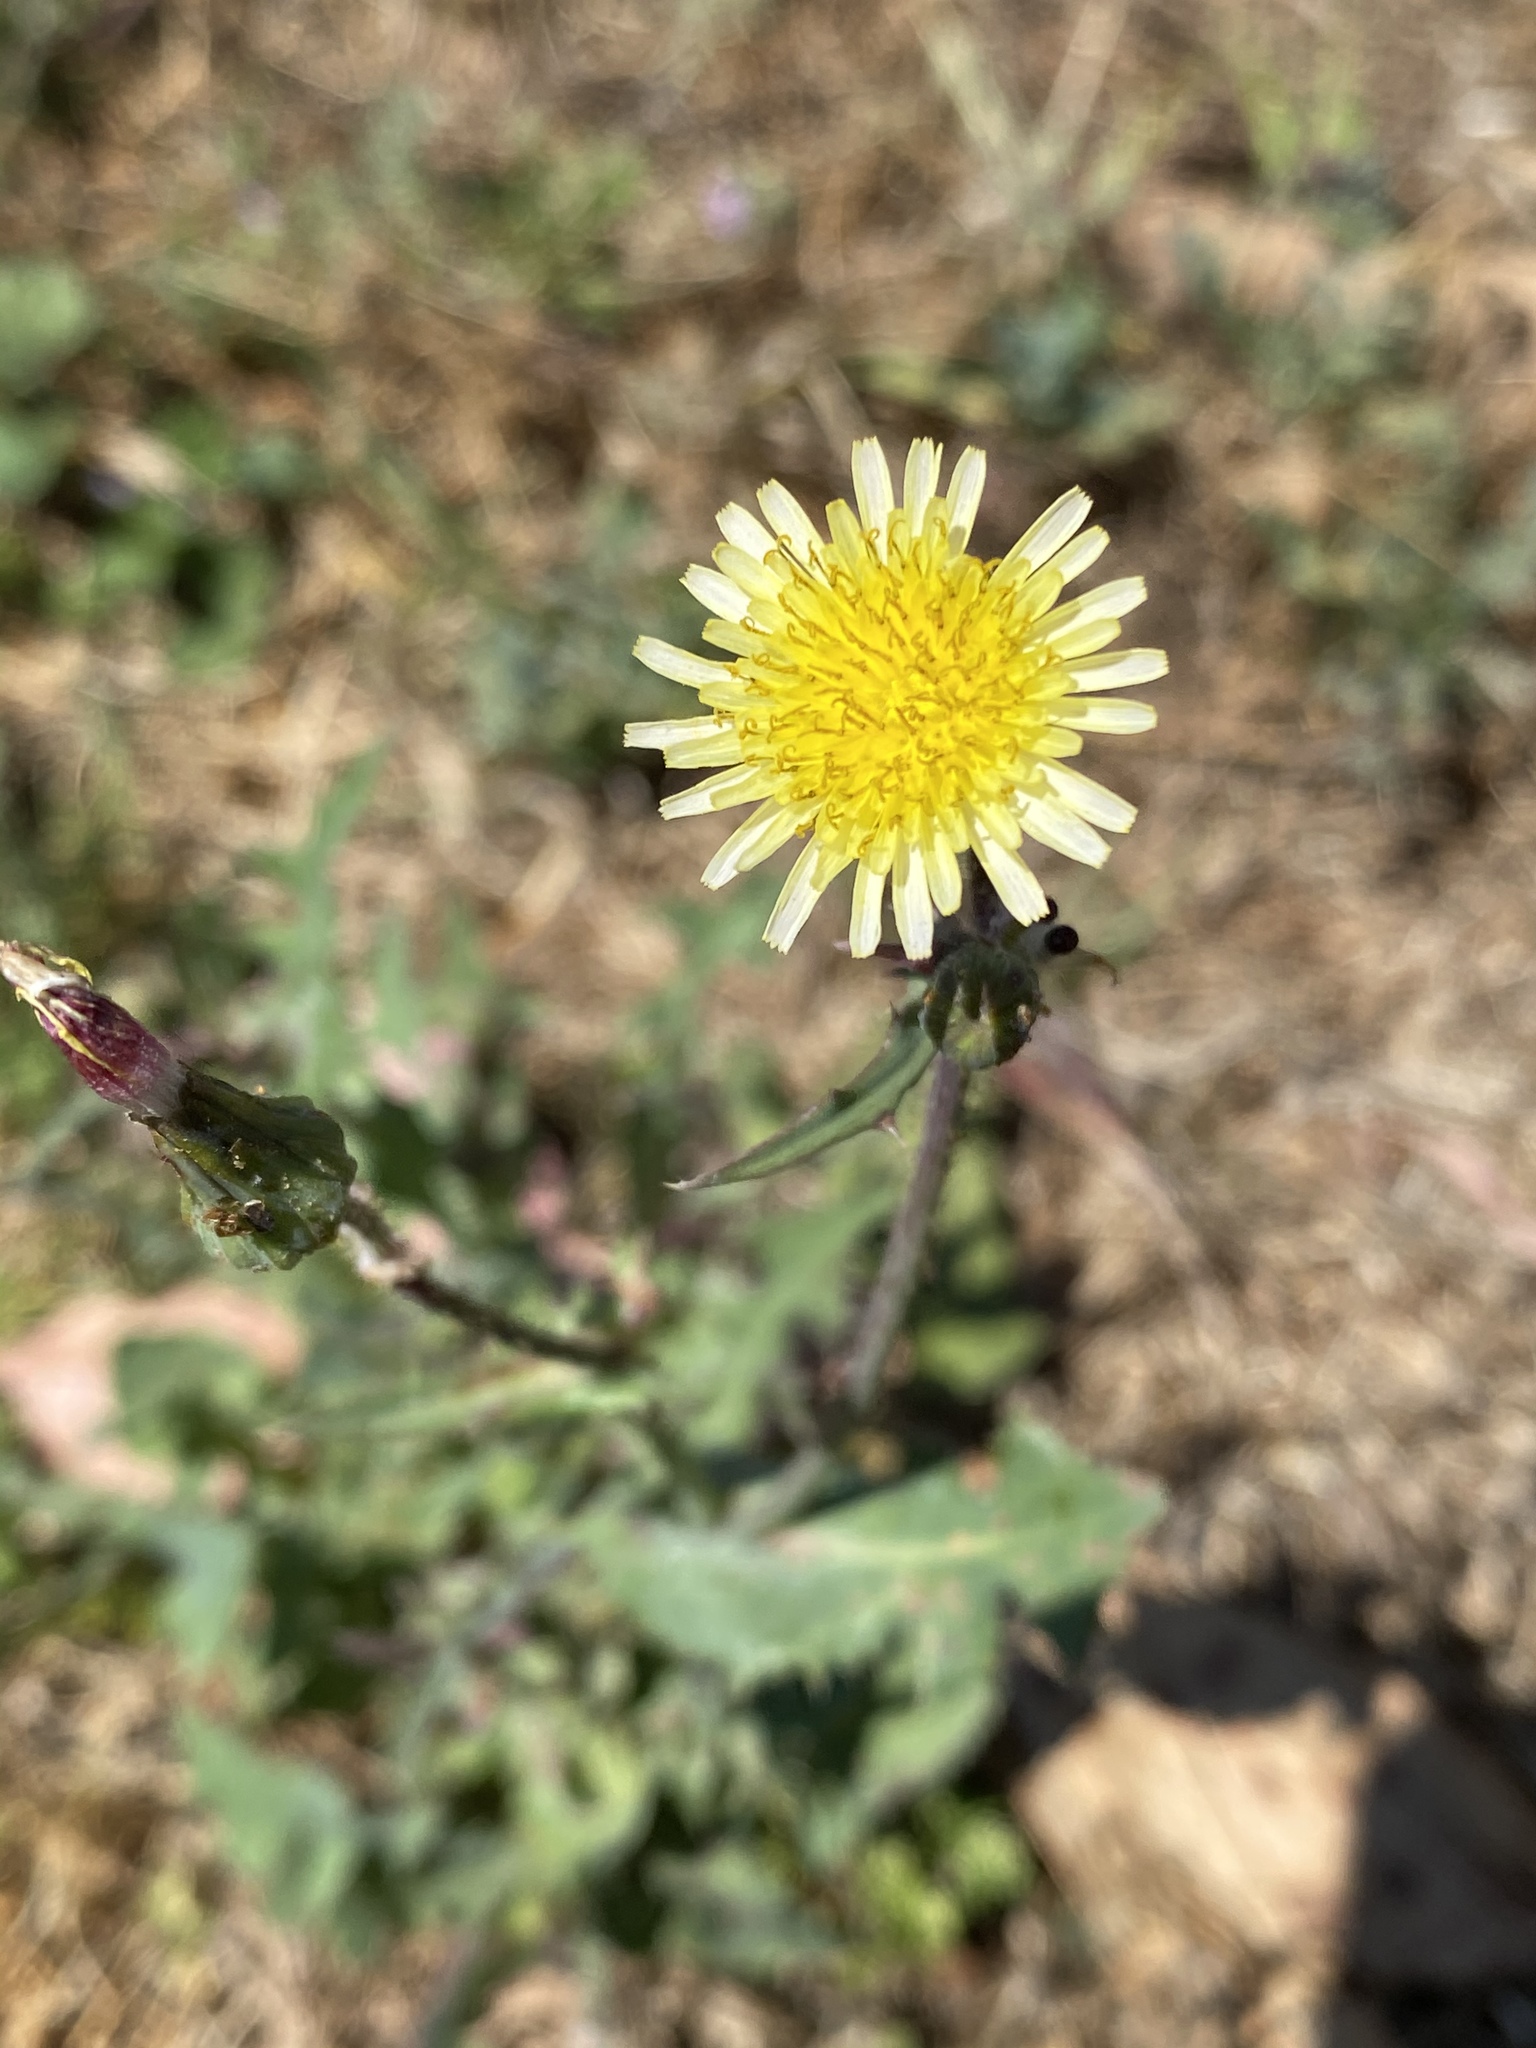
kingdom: Plantae
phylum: Tracheophyta
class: Magnoliopsida
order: Asterales
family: Asteraceae
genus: Sonchus
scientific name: Sonchus oleraceus
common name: Common sowthistle
